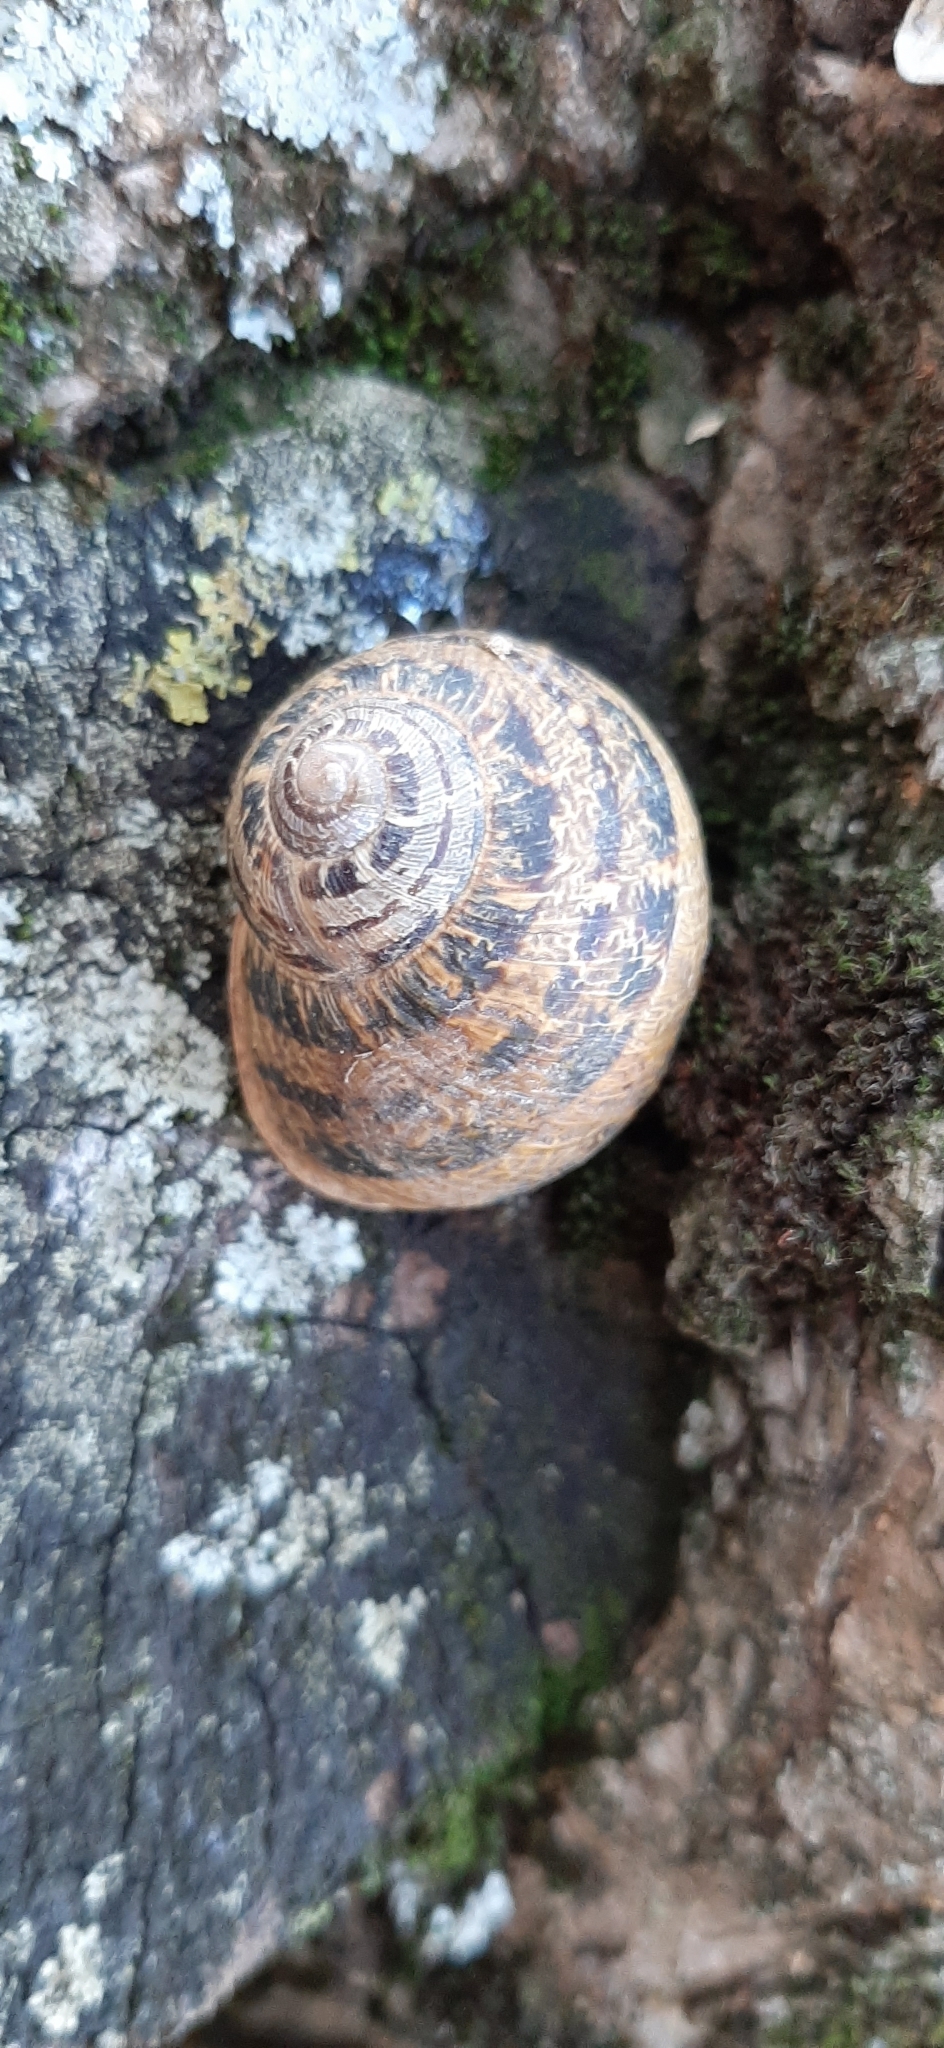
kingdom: Animalia
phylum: Mollusca
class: Gastropoda
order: Stylommatophora
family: Helicidae
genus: Cornu
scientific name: Cornu aspersum
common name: Brown garden snail
